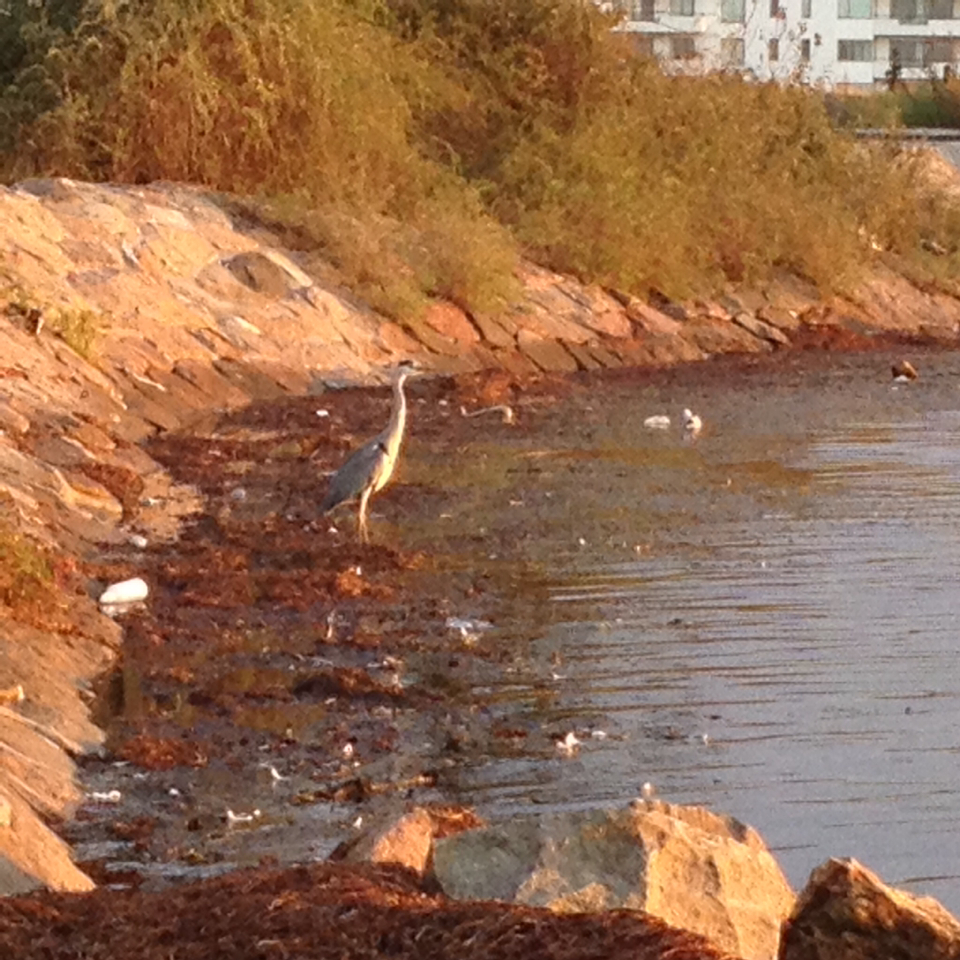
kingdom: Animalia
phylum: Chordata
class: Aves
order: Pelecaniformes
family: Ardeidae
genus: Ardea
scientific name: Ardea cinerea
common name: Grey heron
